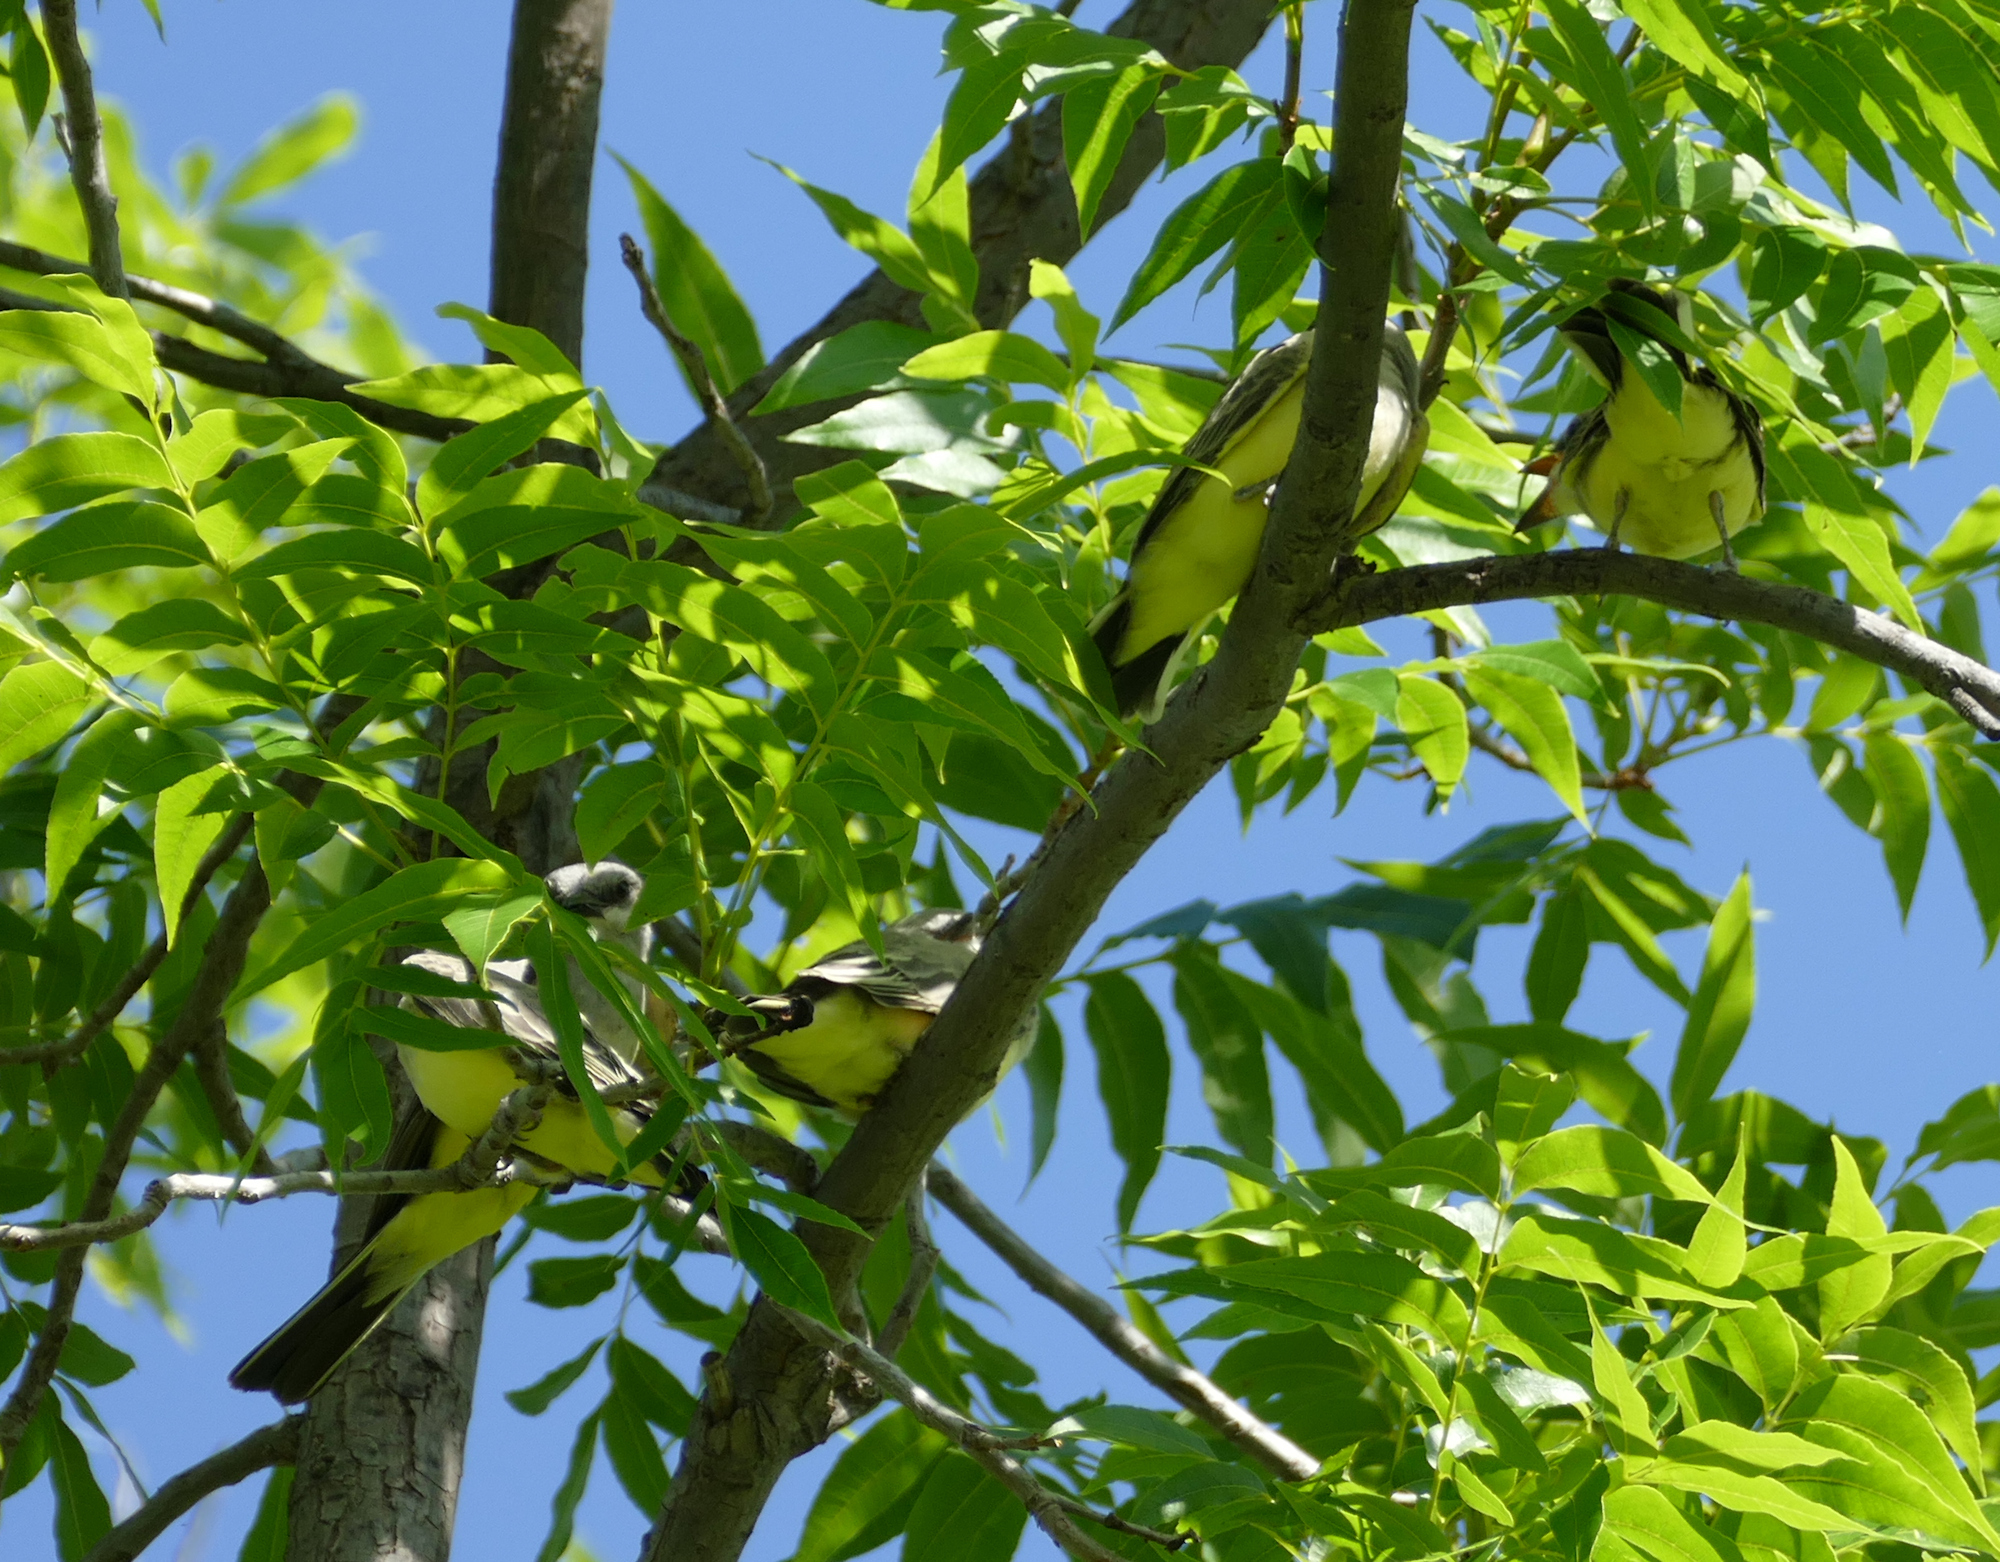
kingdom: Animalia
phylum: Chordata
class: Aves
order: Passeriformes
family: Tyrannidae
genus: Tyrannus
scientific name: Tyrannus verticalis
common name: Western kingbird
